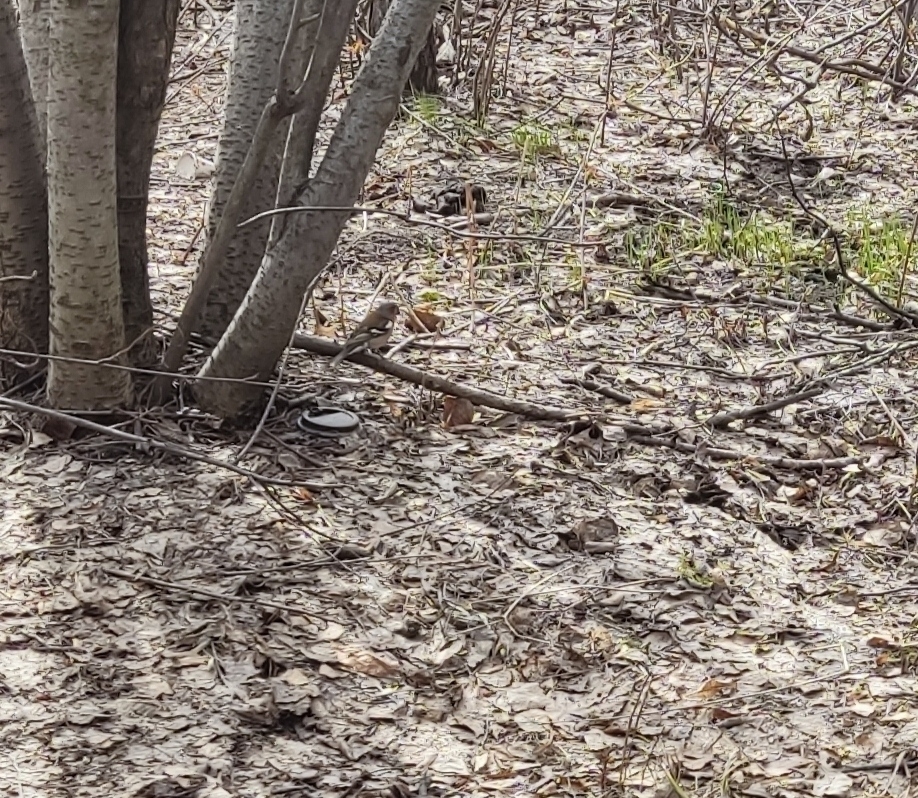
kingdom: Animalia
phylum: Chordata
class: Aves
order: Passeriformes
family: Fringillidae
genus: Fringilla
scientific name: Fringilla coelebs
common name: Common chaffinch
